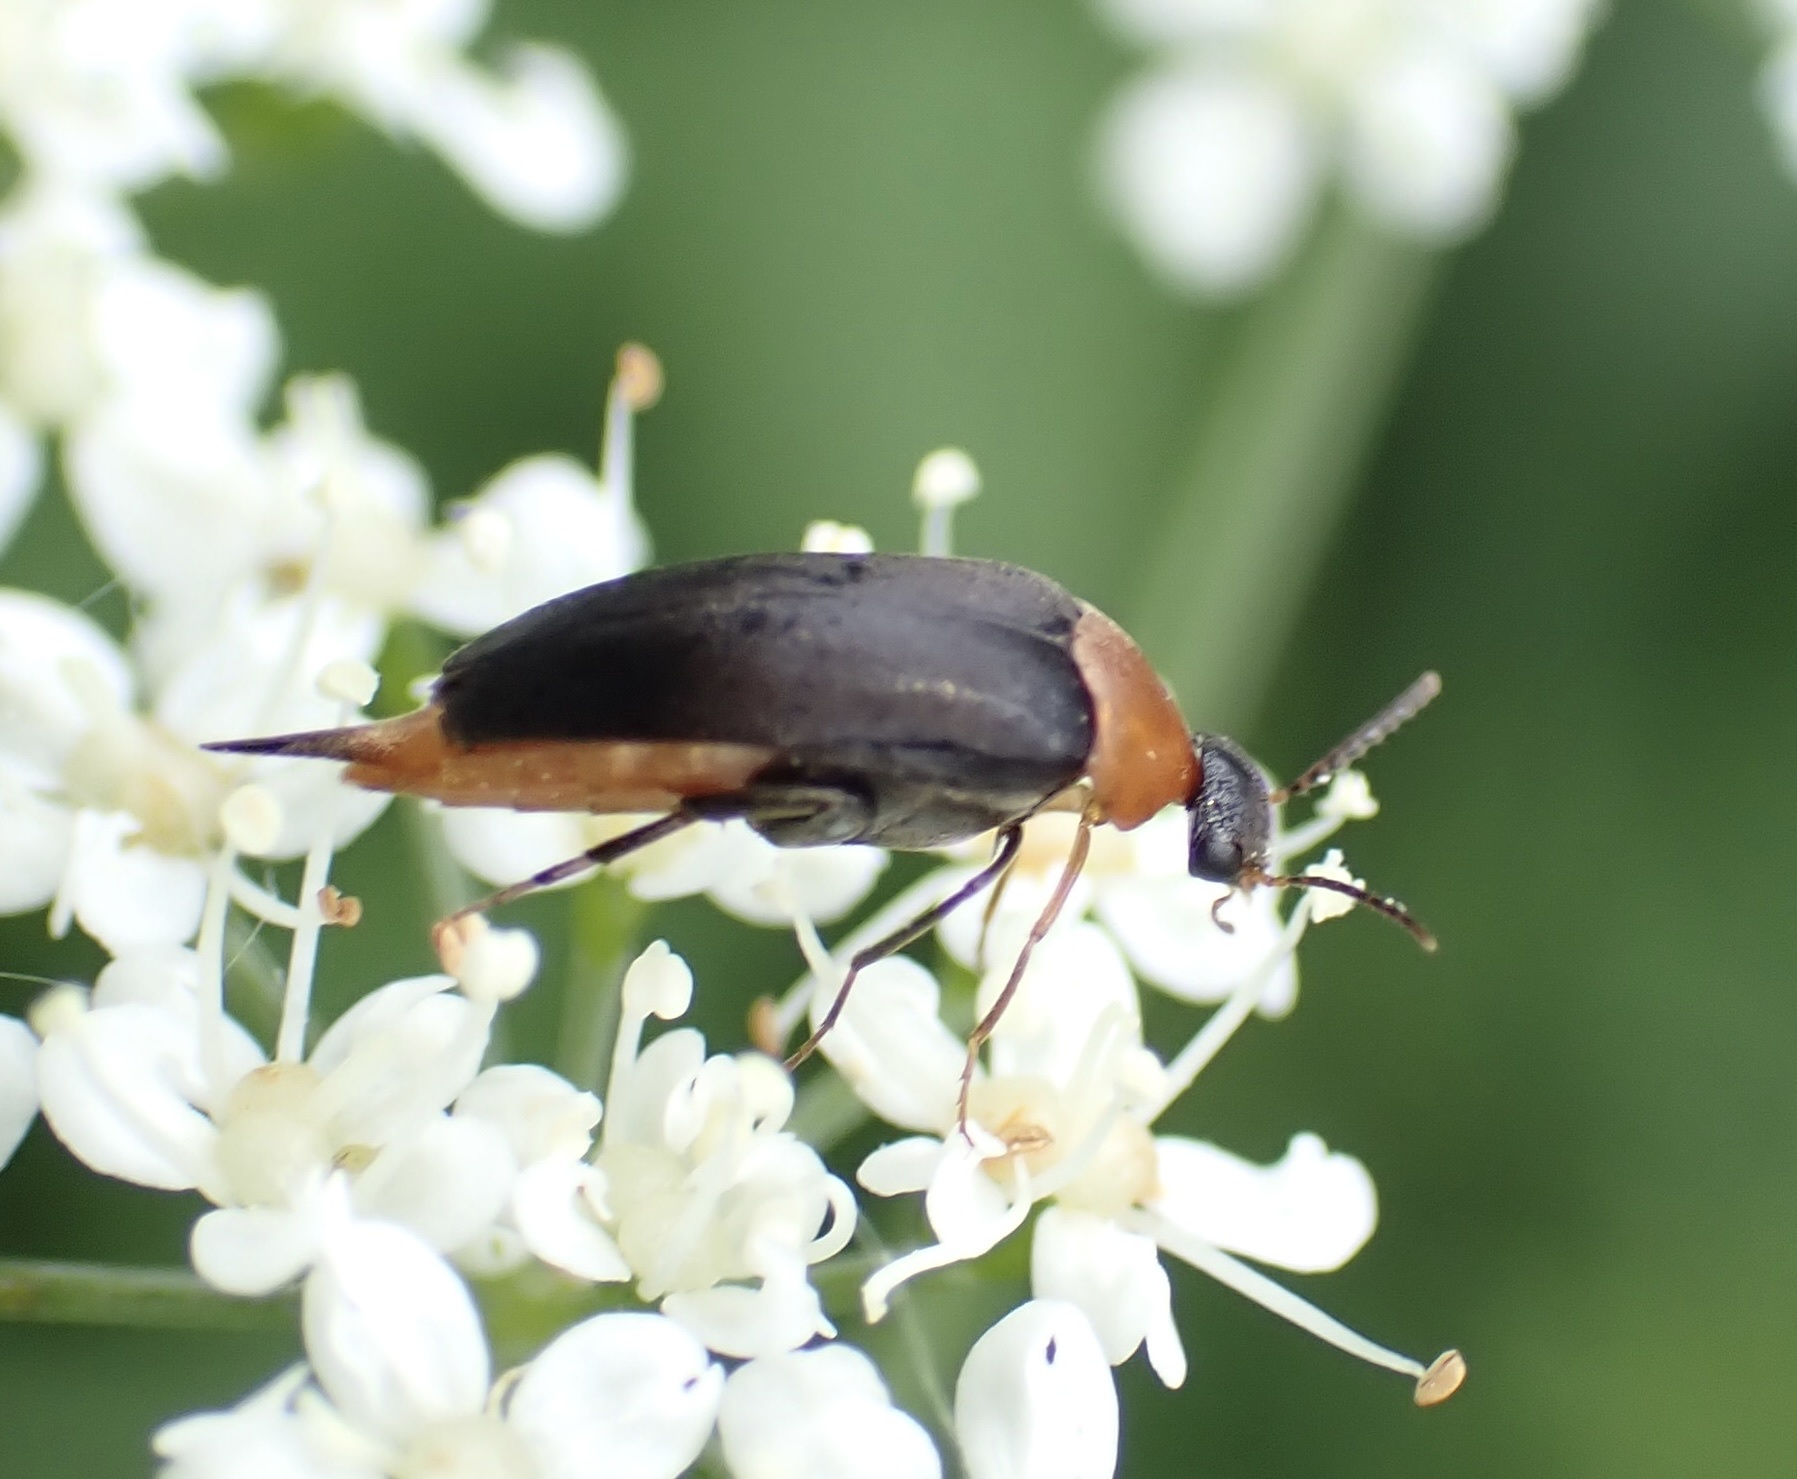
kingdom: Animalia
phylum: Arthropoda
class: Insecta
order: Coleoptera
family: Mordellidae
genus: Mordellochroa
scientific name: Mordellochroa abdominalis
